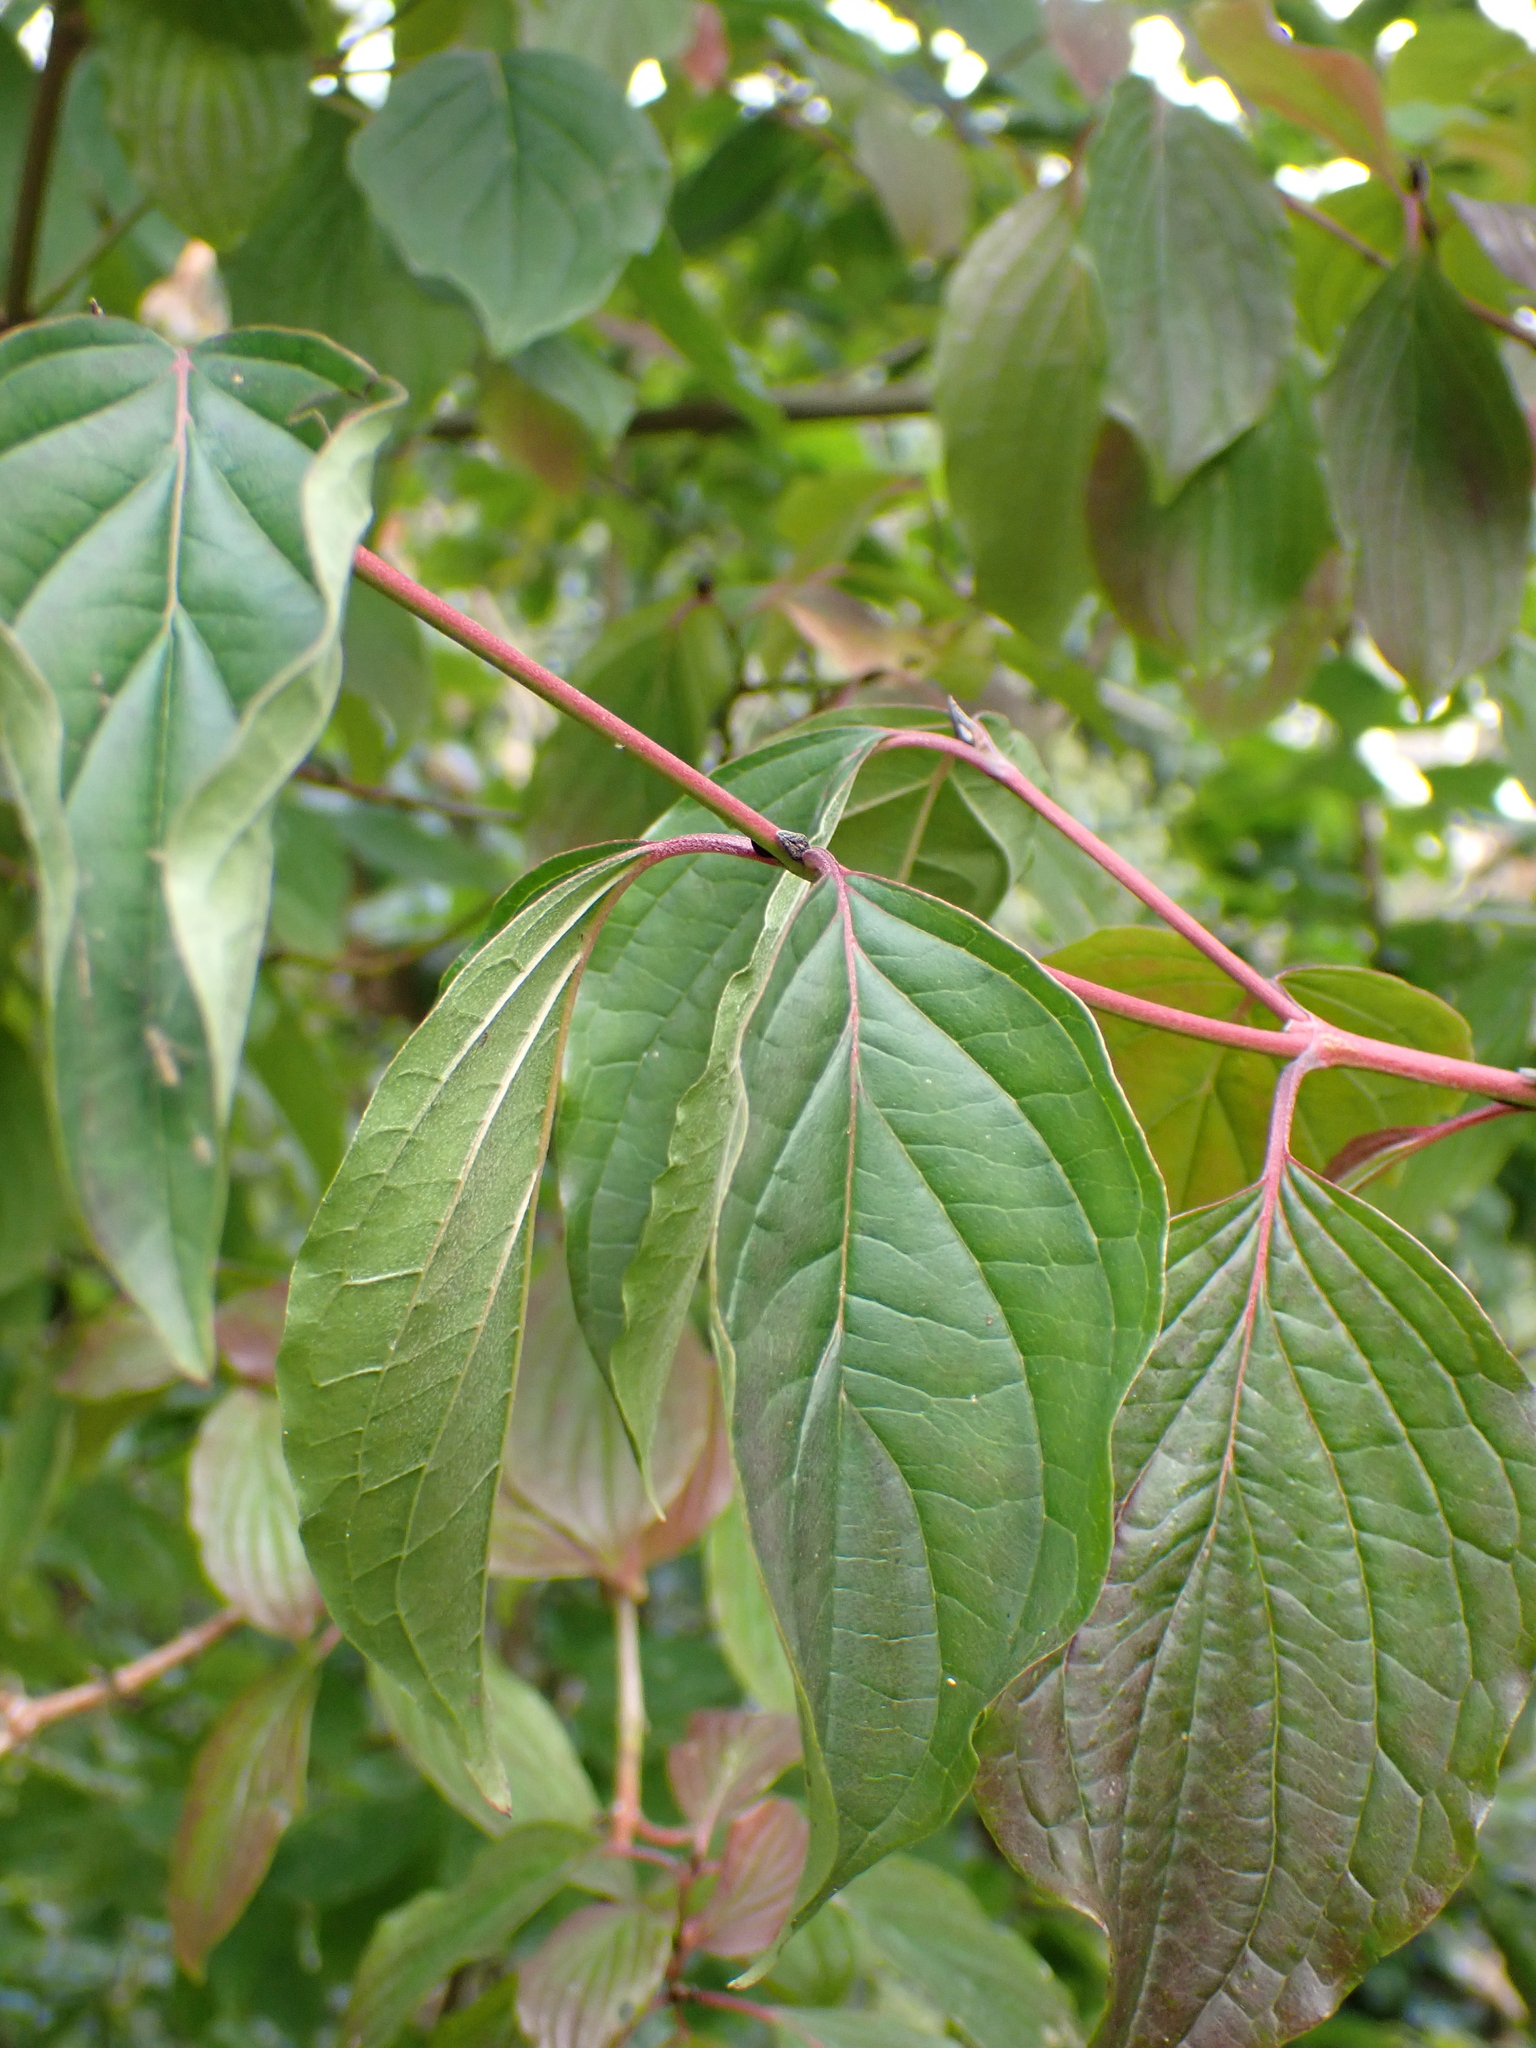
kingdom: Plantae
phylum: Tracheophyta
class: Magnoliopsida
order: Cornales
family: Cornaceae
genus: Cornus
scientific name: Cornus sanguinea
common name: Dogwood
